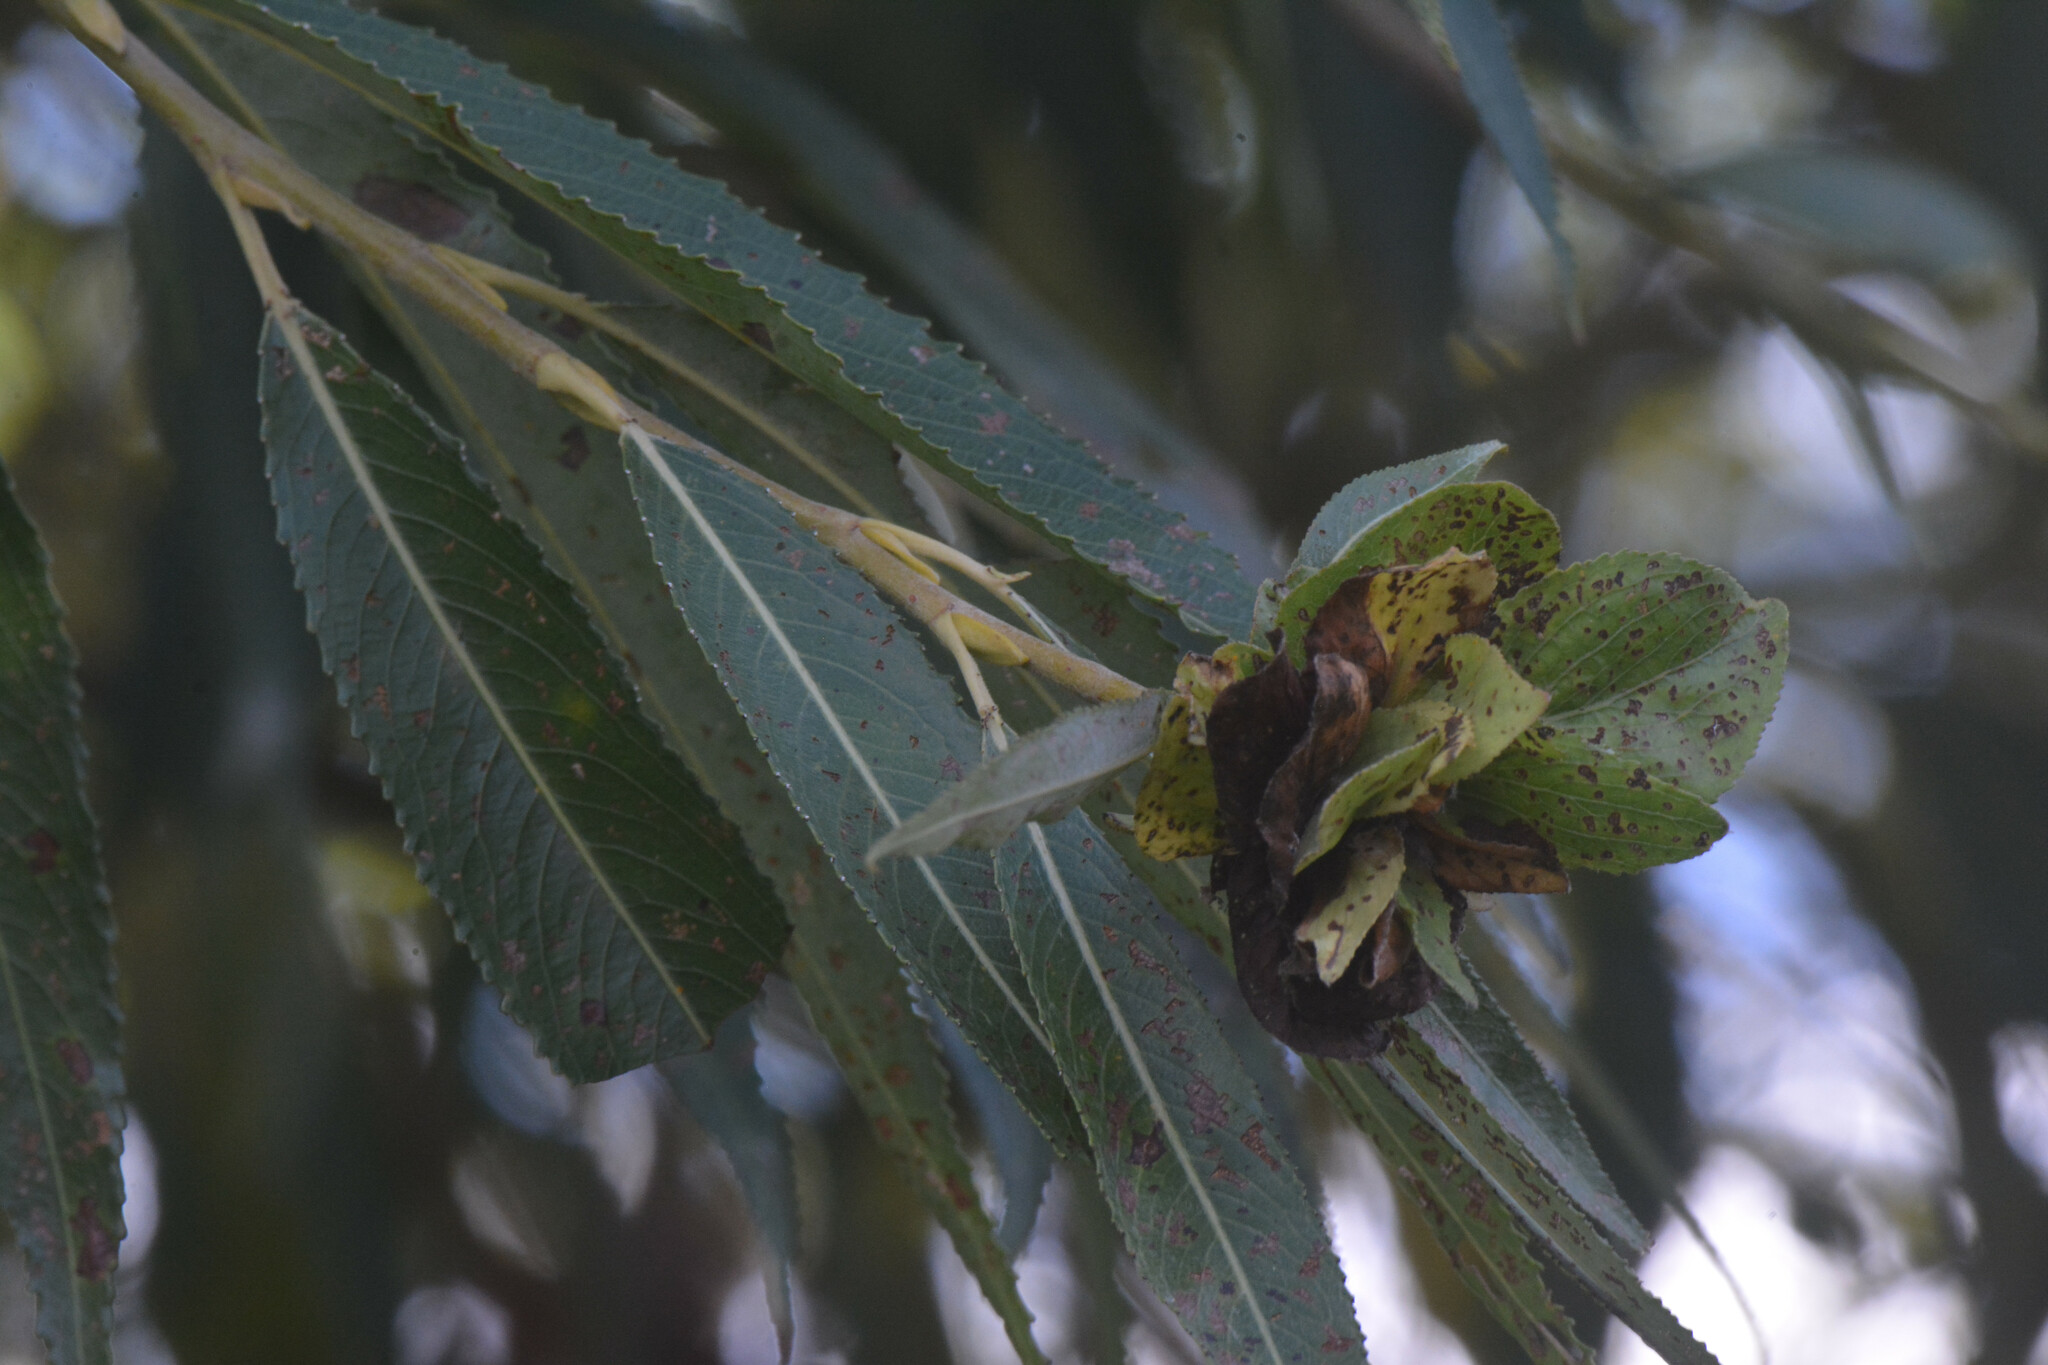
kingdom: Animalia
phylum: Arthropoda
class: Insecta
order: Diptera
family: Cecidomyiidae
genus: Rabdophaga
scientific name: Rabdophaga rosaria
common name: Willow rose gall midge
